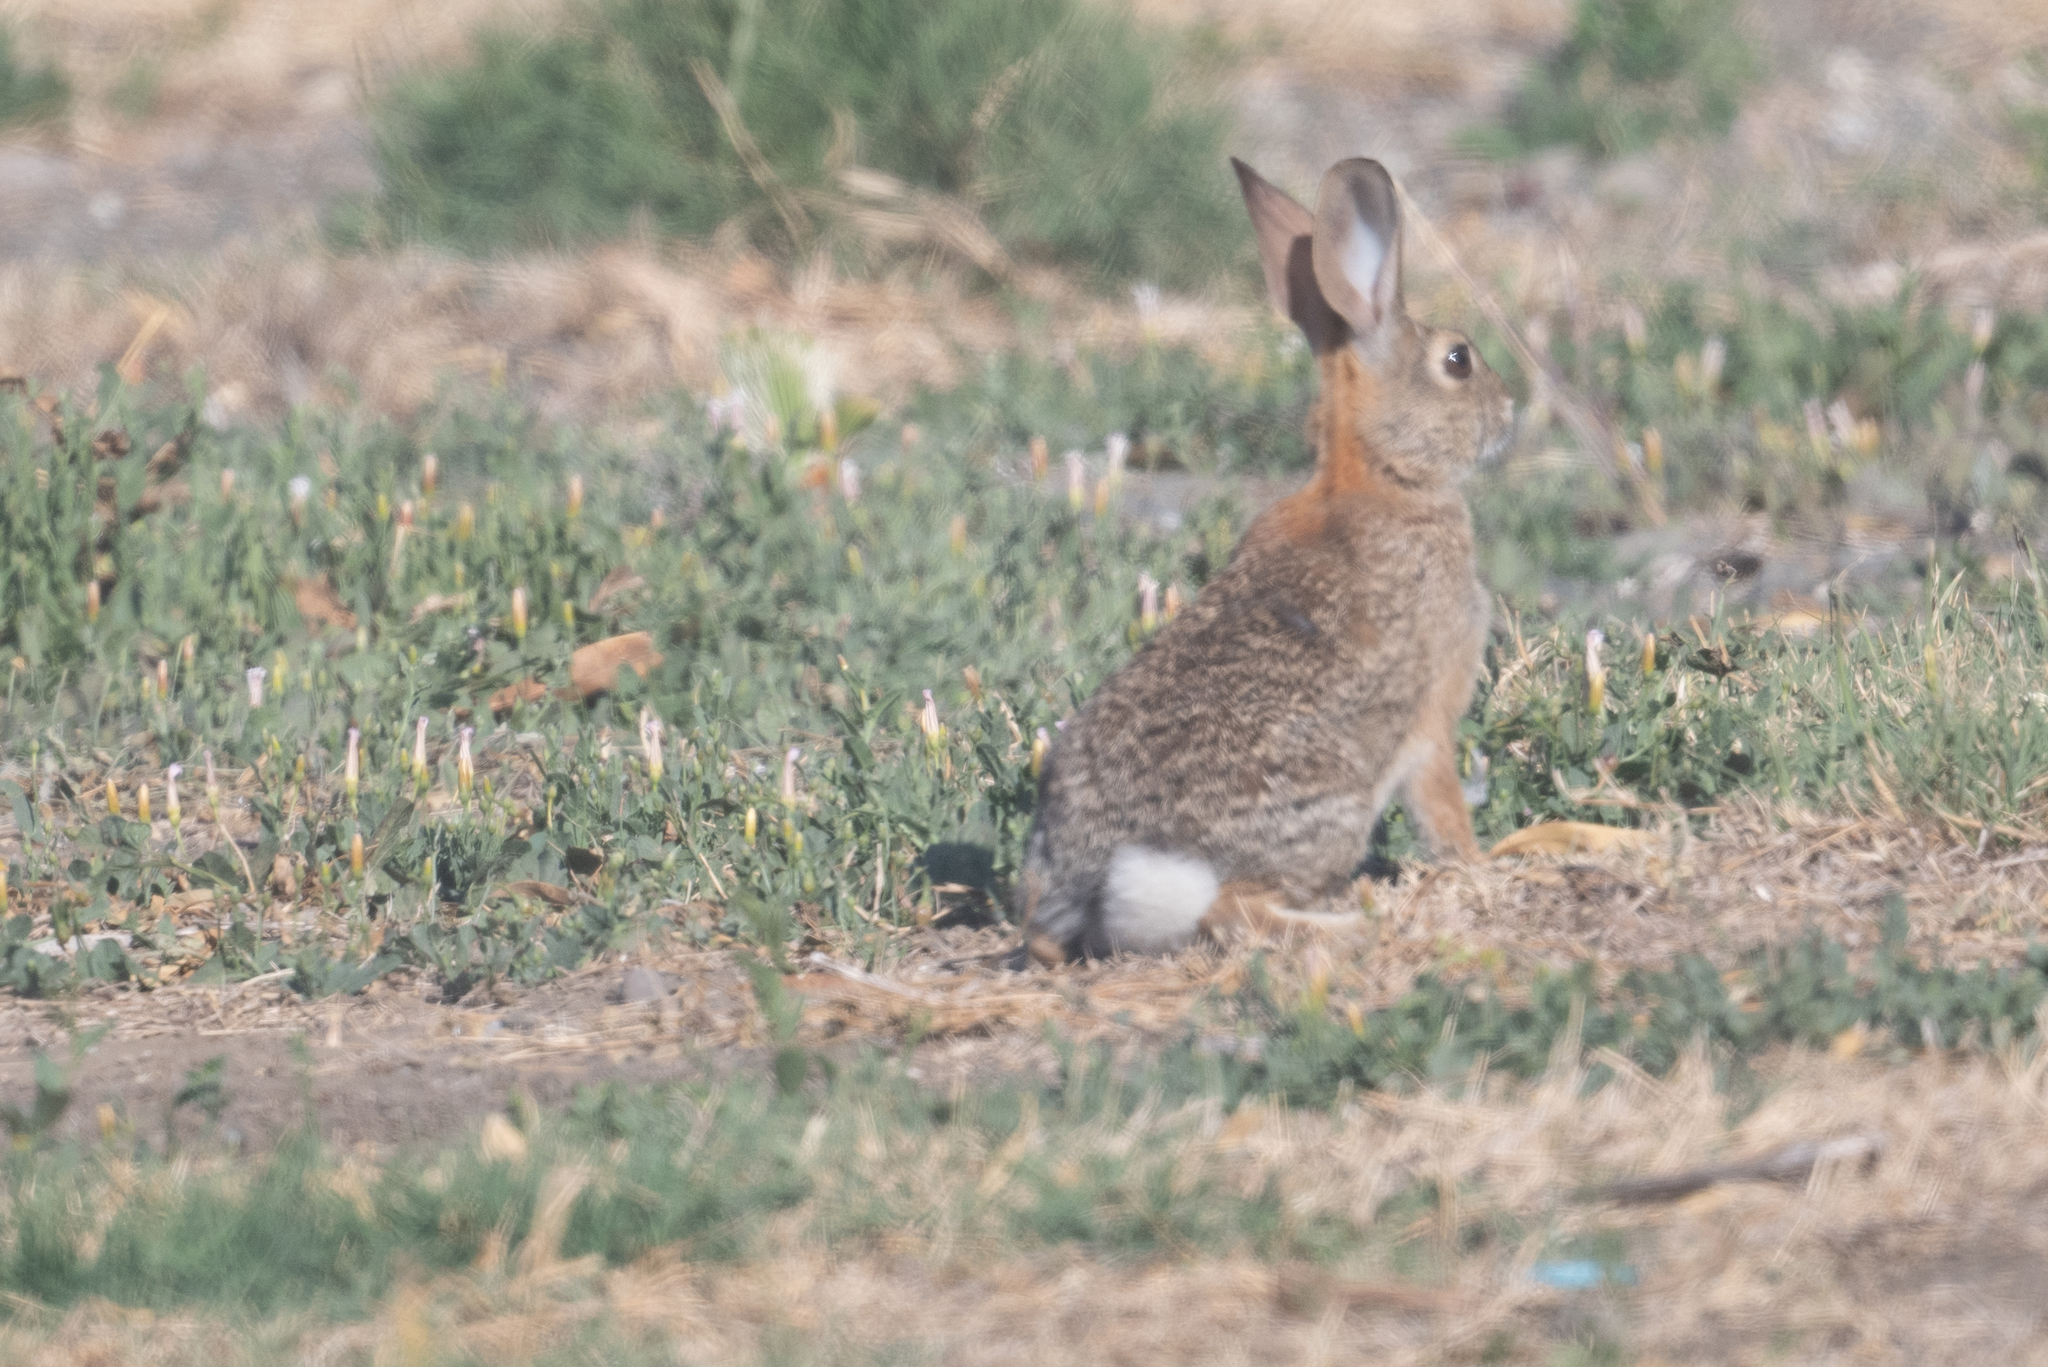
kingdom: Animalia
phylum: Chordata
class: Mammalia
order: Lagomorpha
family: Leporidae
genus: Sylvilagus
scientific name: Sylvilagus audubonii
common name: Desert cottontail
